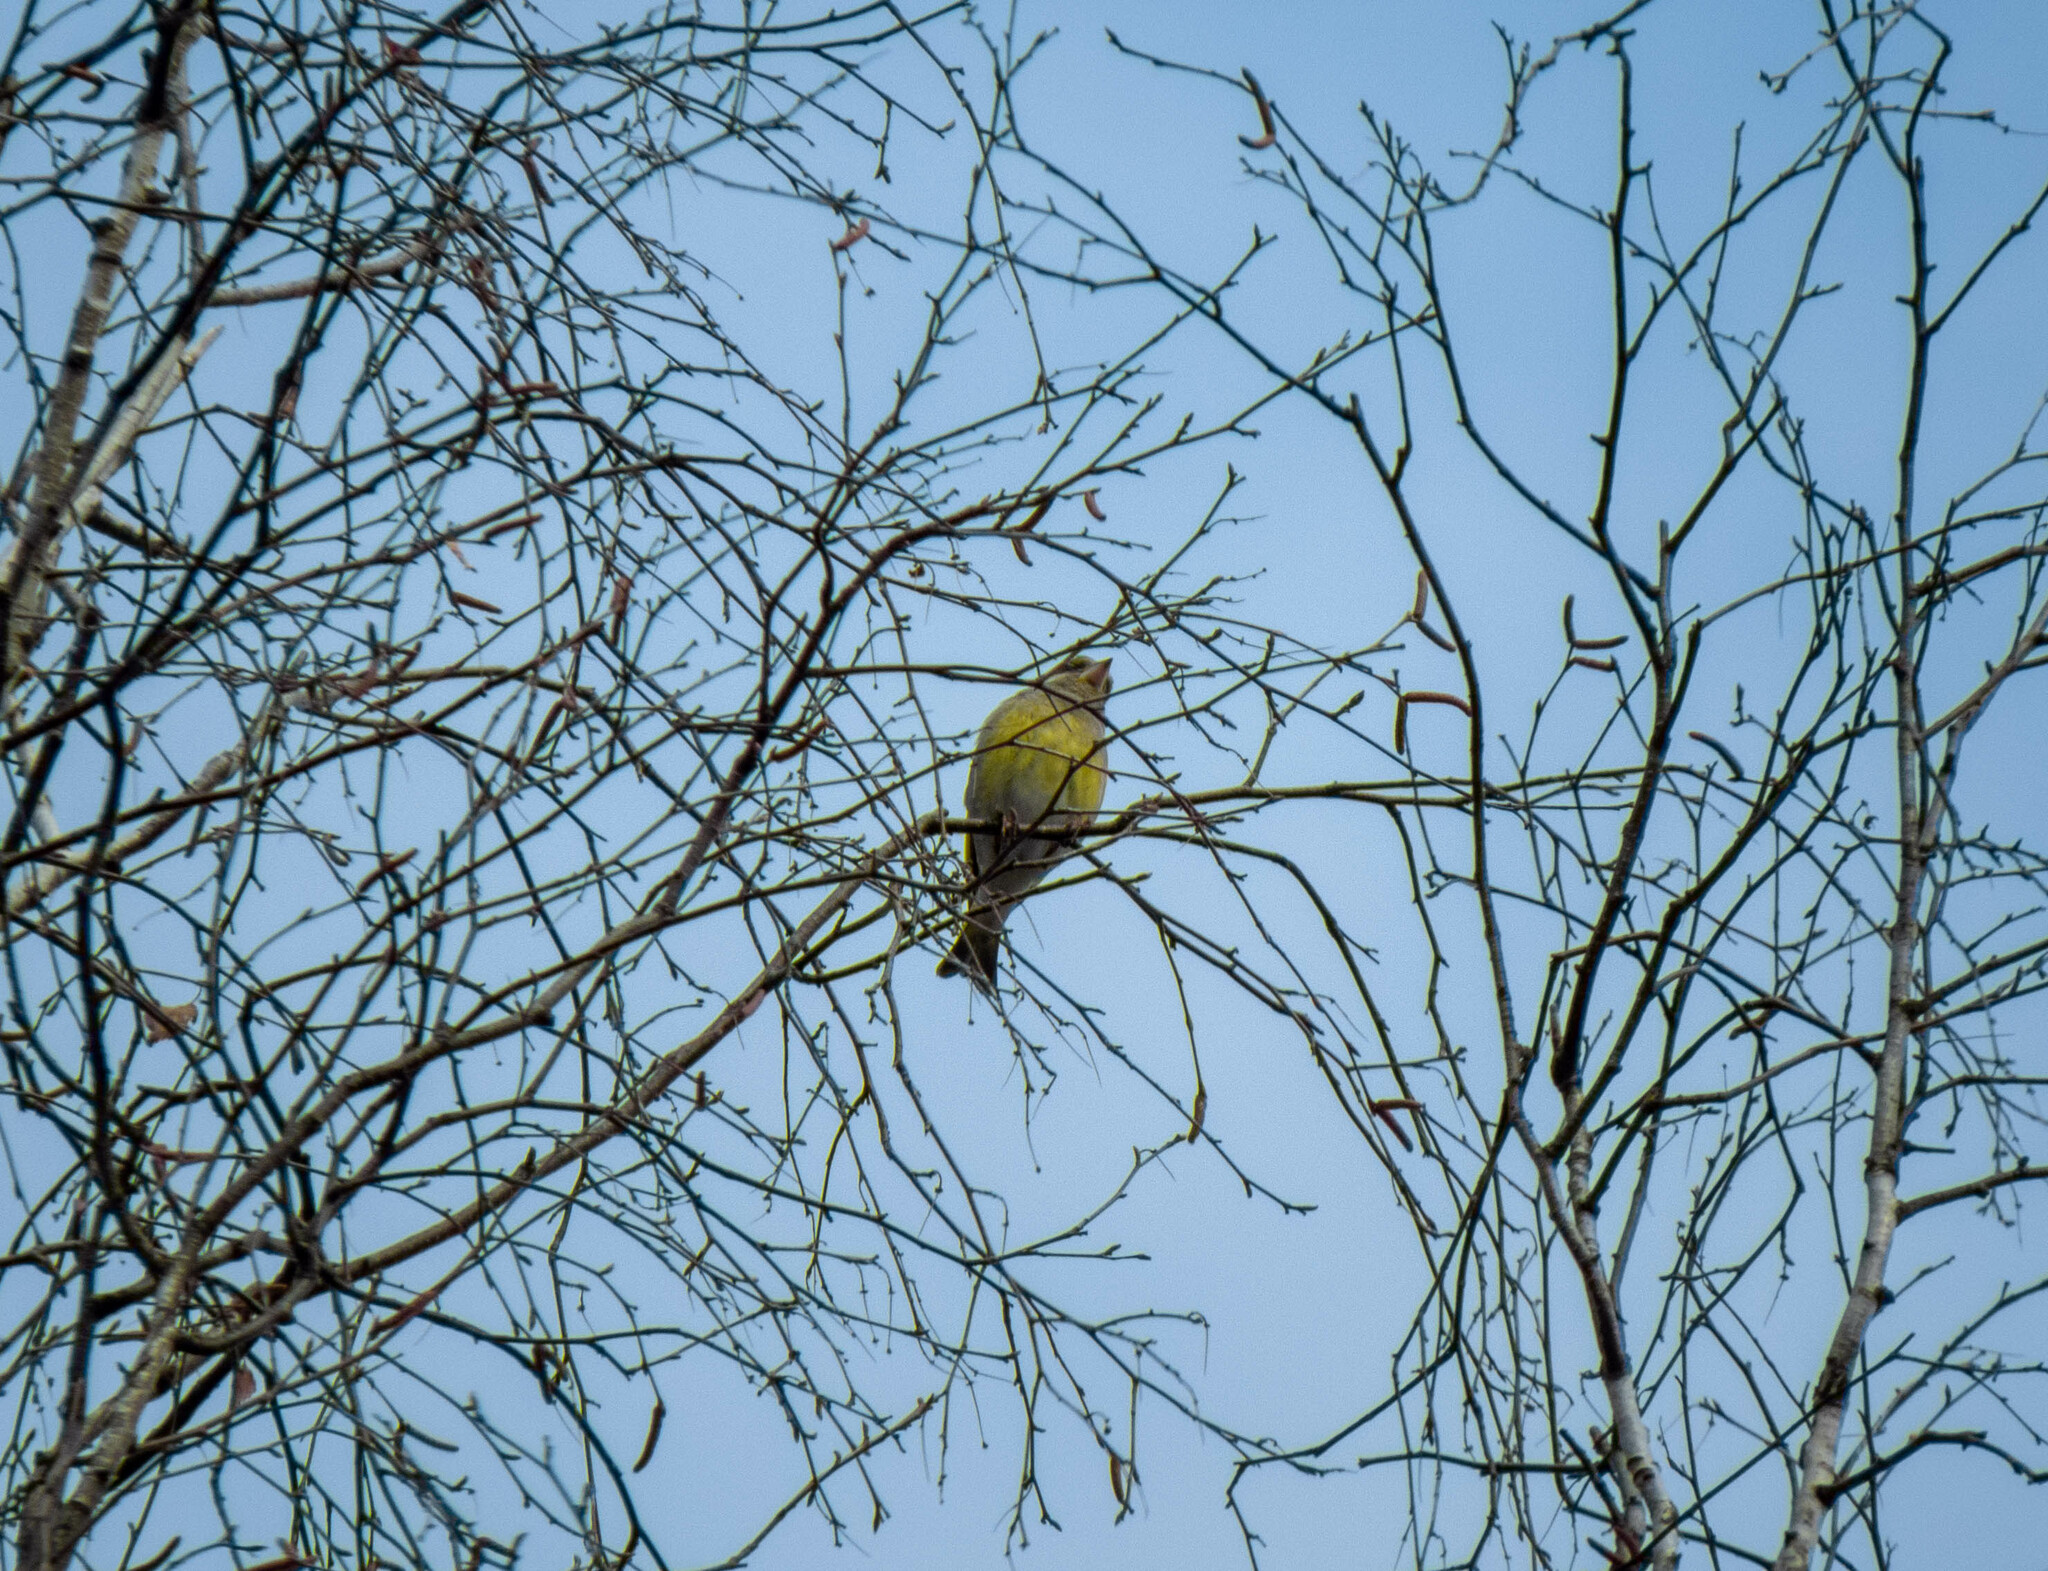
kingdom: Plantae
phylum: Tracheophyta
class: Liliopsida
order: Poales
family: Poaceae
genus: Chloris
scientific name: Chloris chloris
